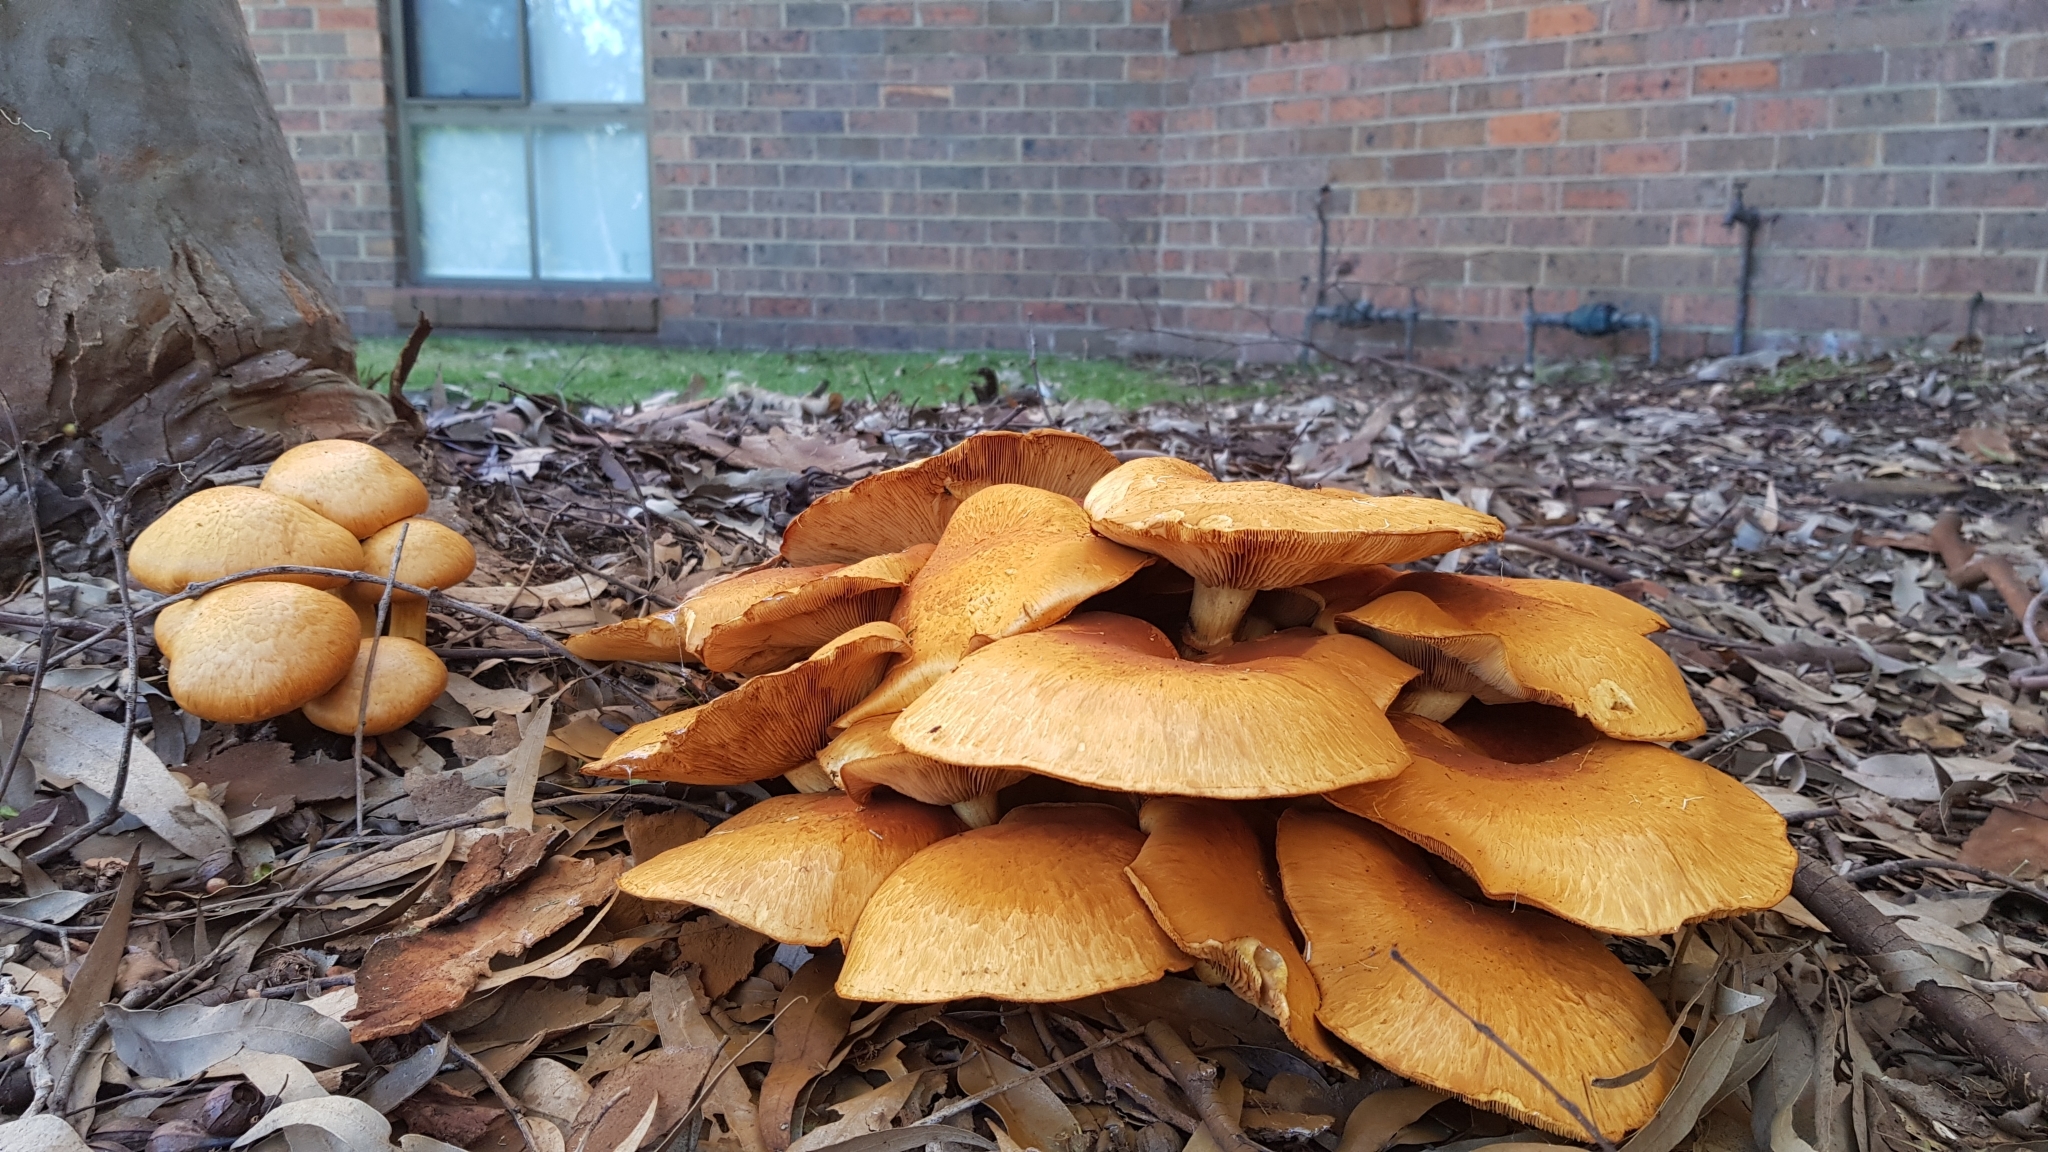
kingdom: Fungi
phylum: Basidiomycota
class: Agaricomycetes
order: Agaricales
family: Hymenogastraceae
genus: Gymnopilus
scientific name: Gymnopilus junonius
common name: Spectacular rustgill
